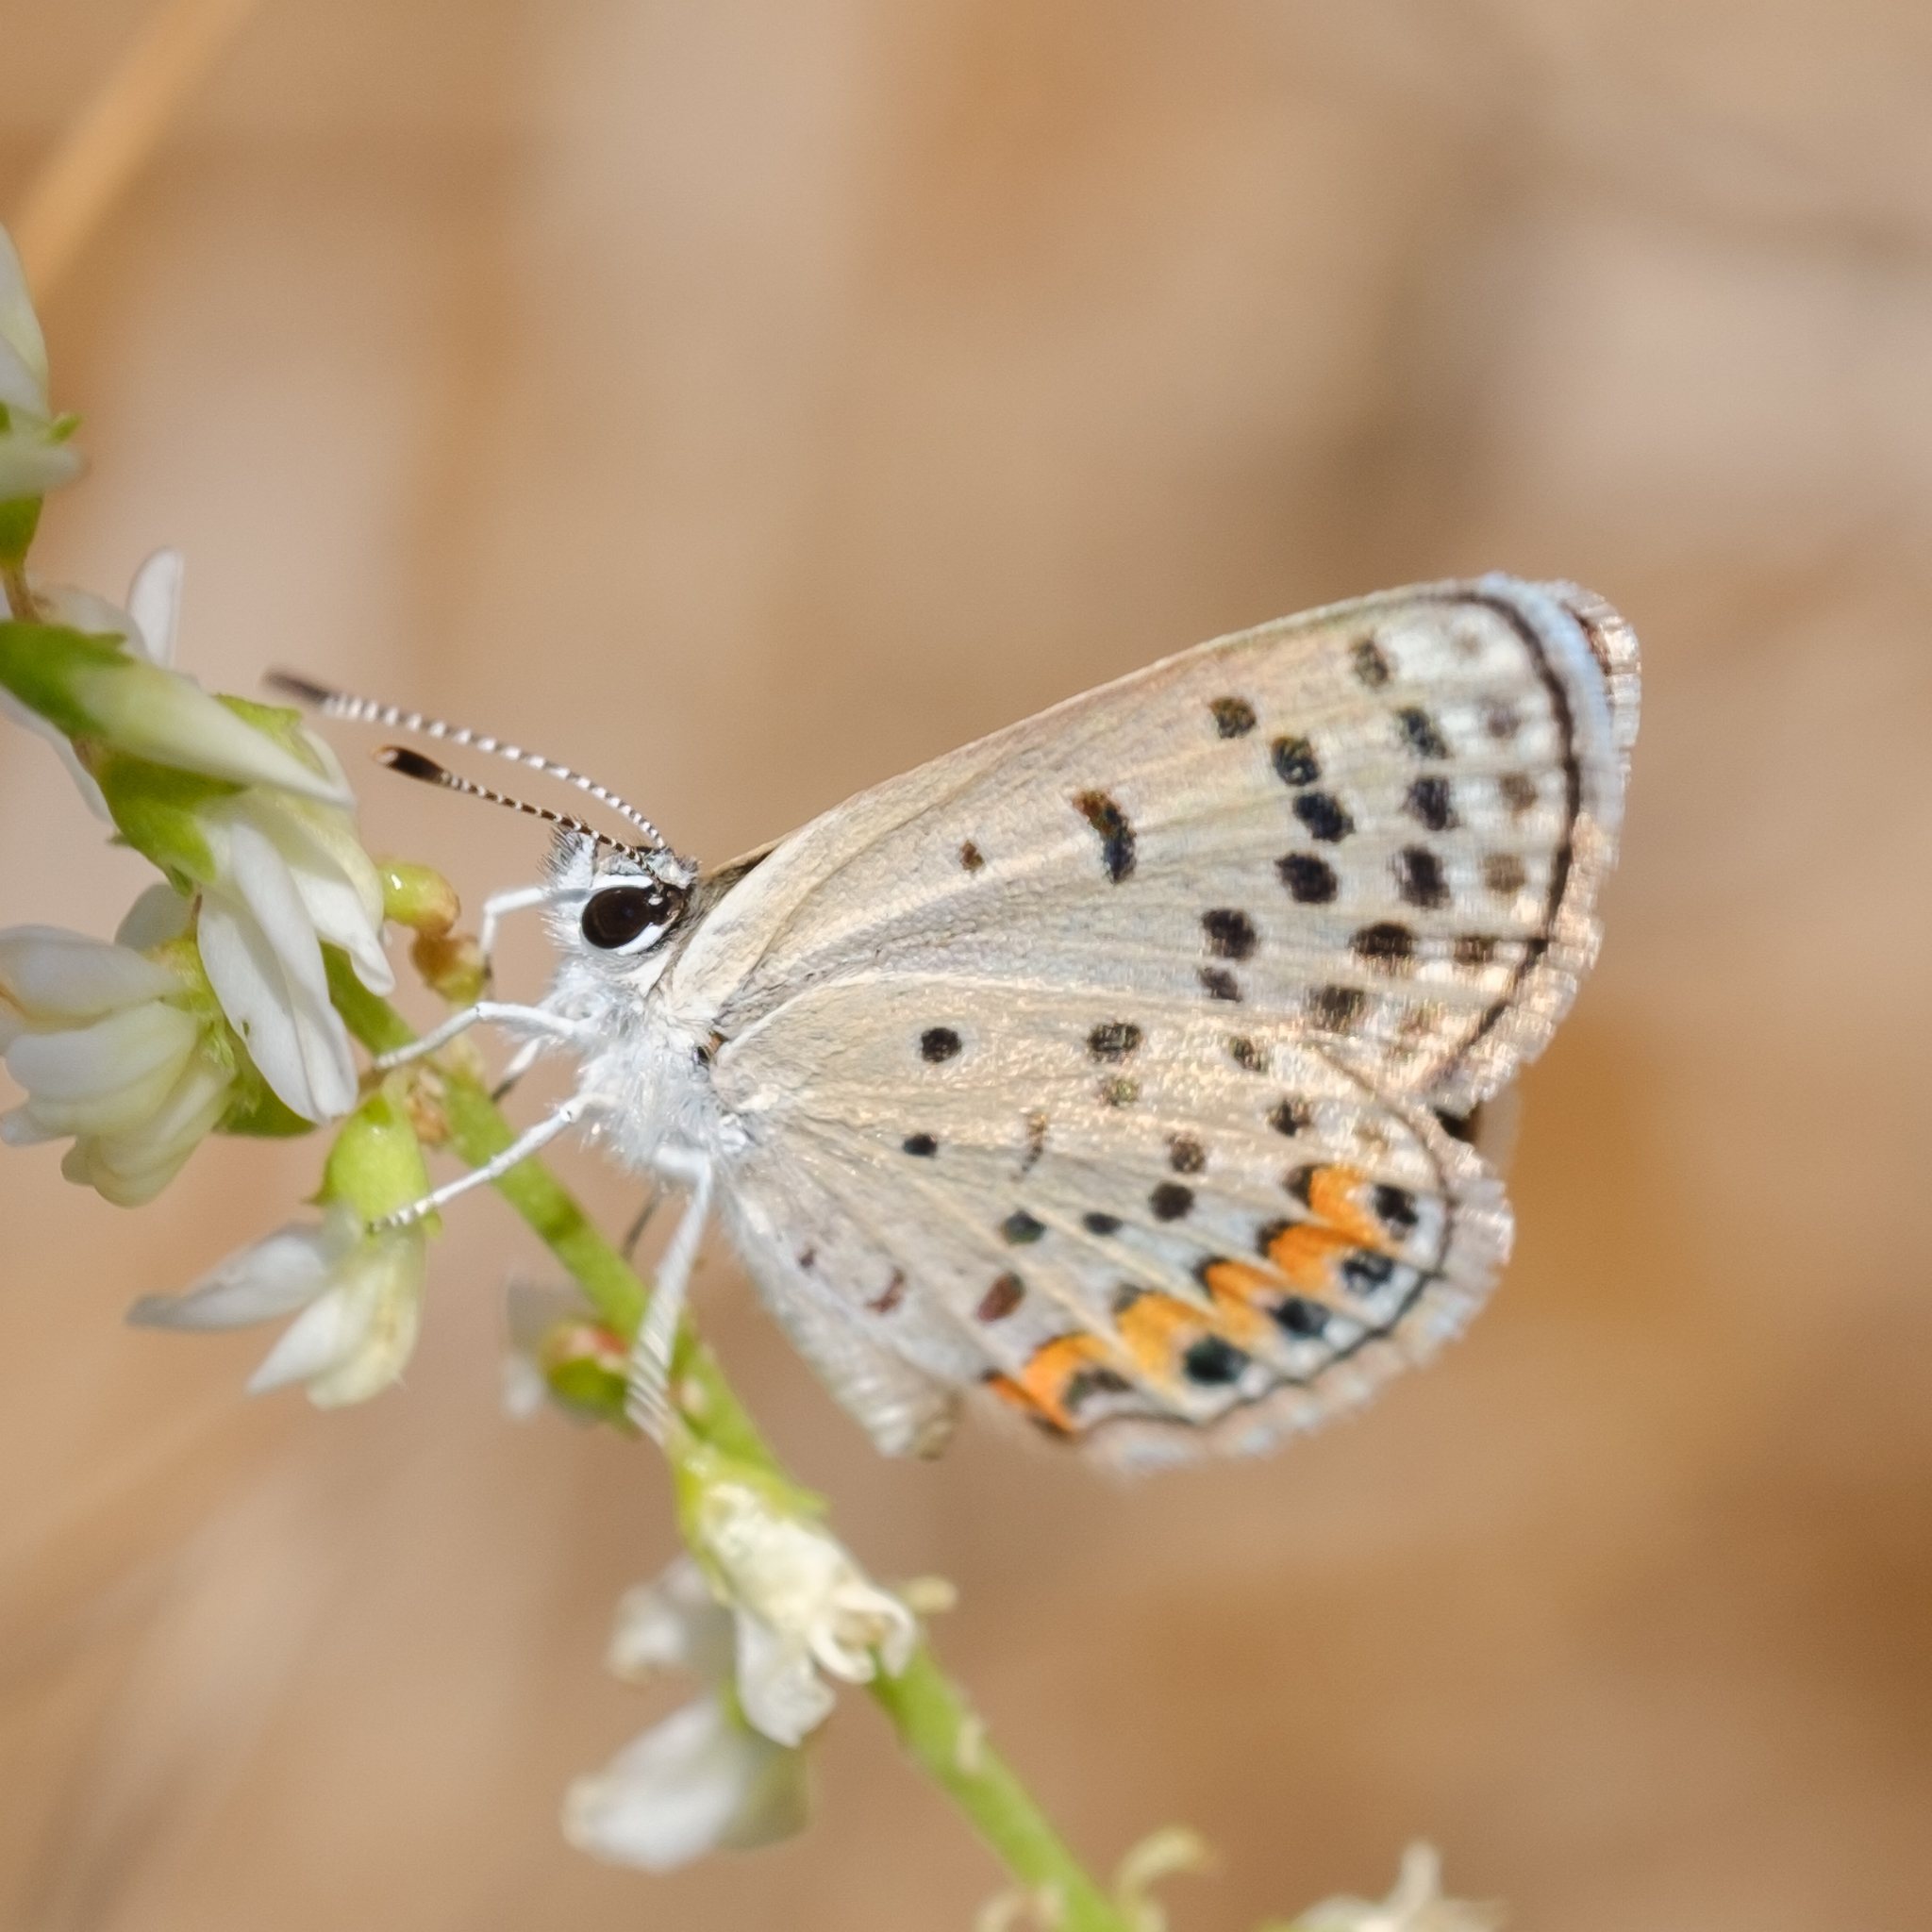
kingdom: Animalia
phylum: Arthropoda
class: Insecta
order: Lepidoptera
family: Lycaenidae
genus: Icaricia
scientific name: Icaricia acmon
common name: Acmon blue
